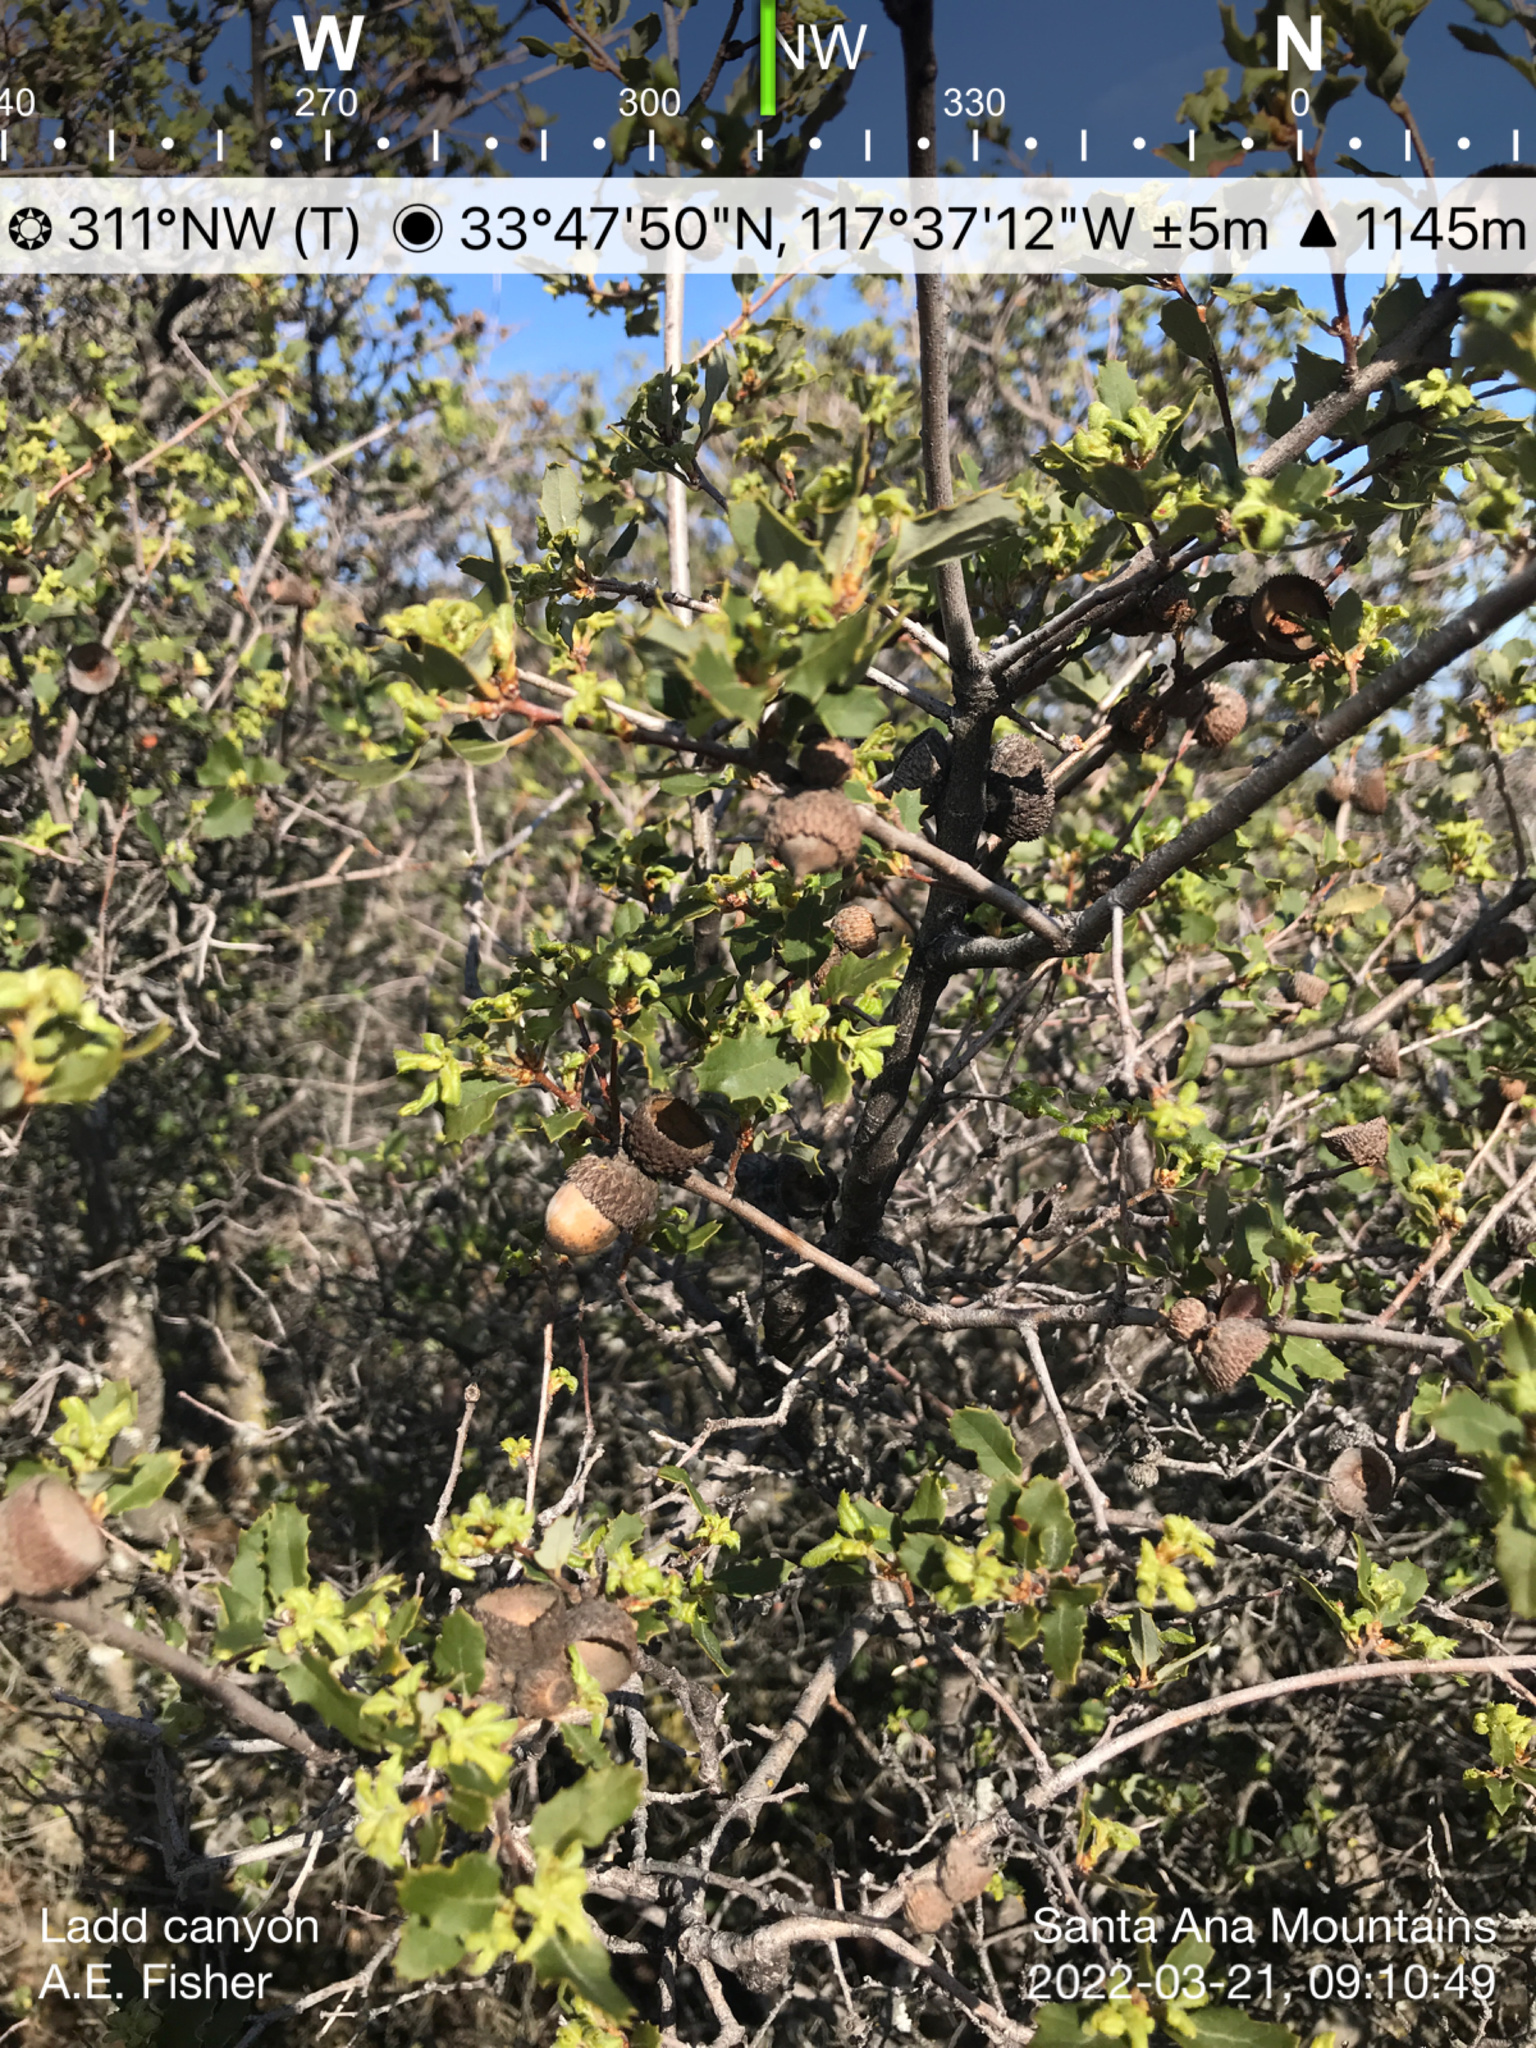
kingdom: Plantae
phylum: Tracheophyta
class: Magnoliopsida
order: Fagales
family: Fagaceae
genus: Quercus
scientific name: Quercus berberidifolia
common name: California scrub oak
